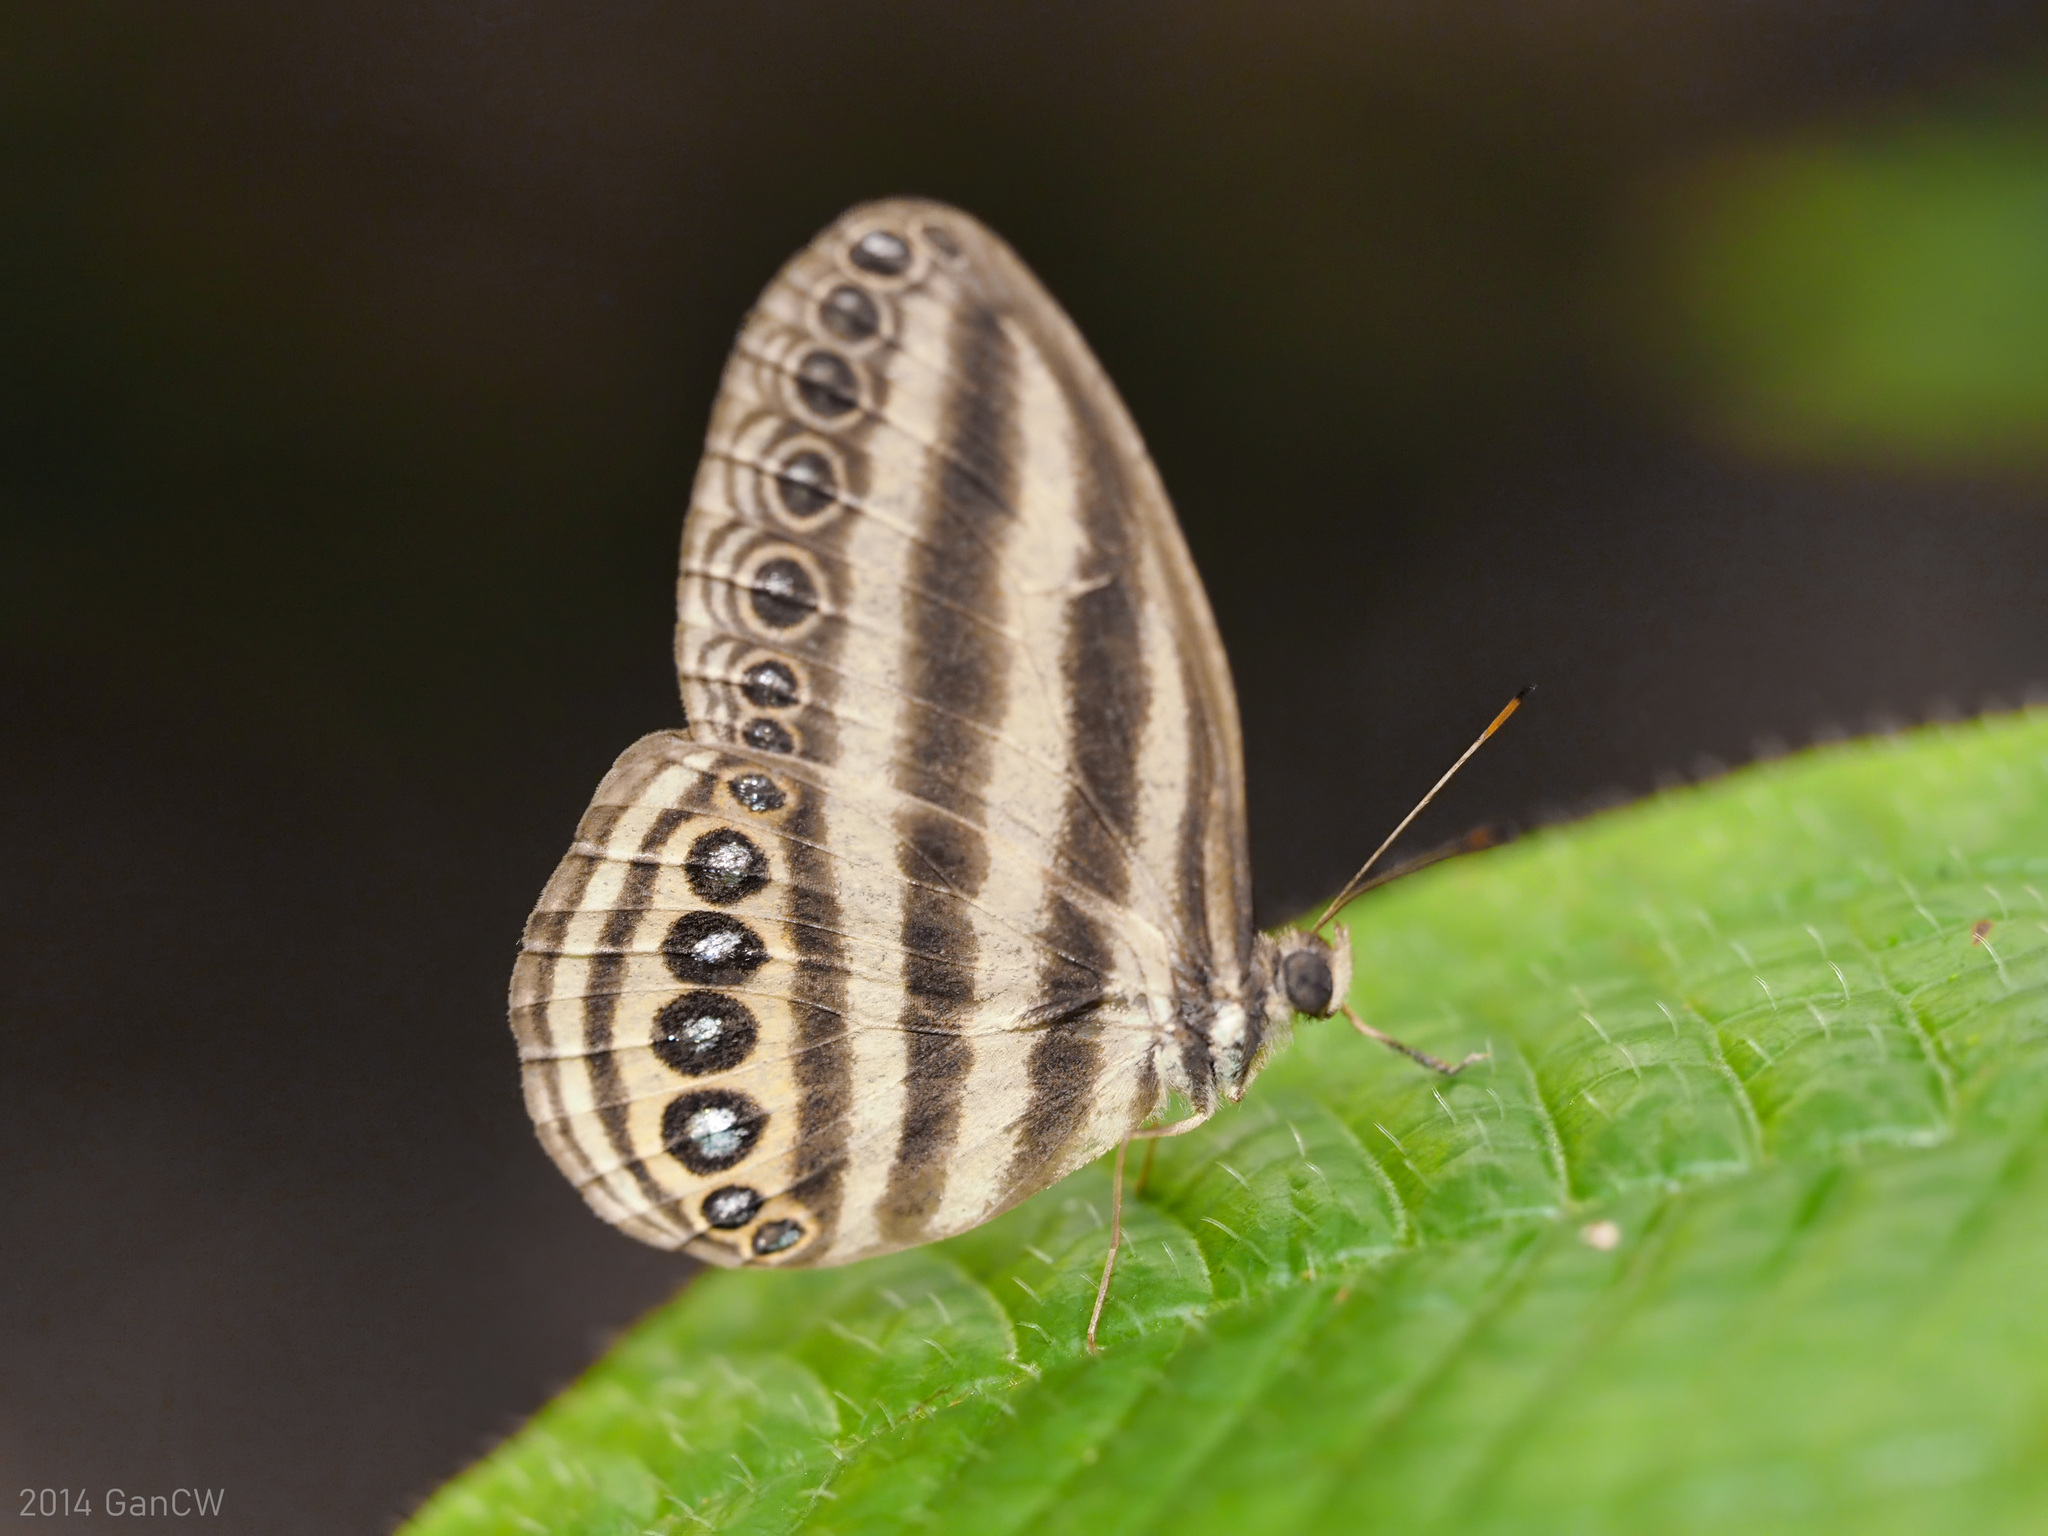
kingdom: Animalia
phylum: Arthropoda
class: Insecta
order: Lepidoptera
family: Nymphalidae
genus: Ragadia
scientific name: Ragadia makuta
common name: Striped ringlet
